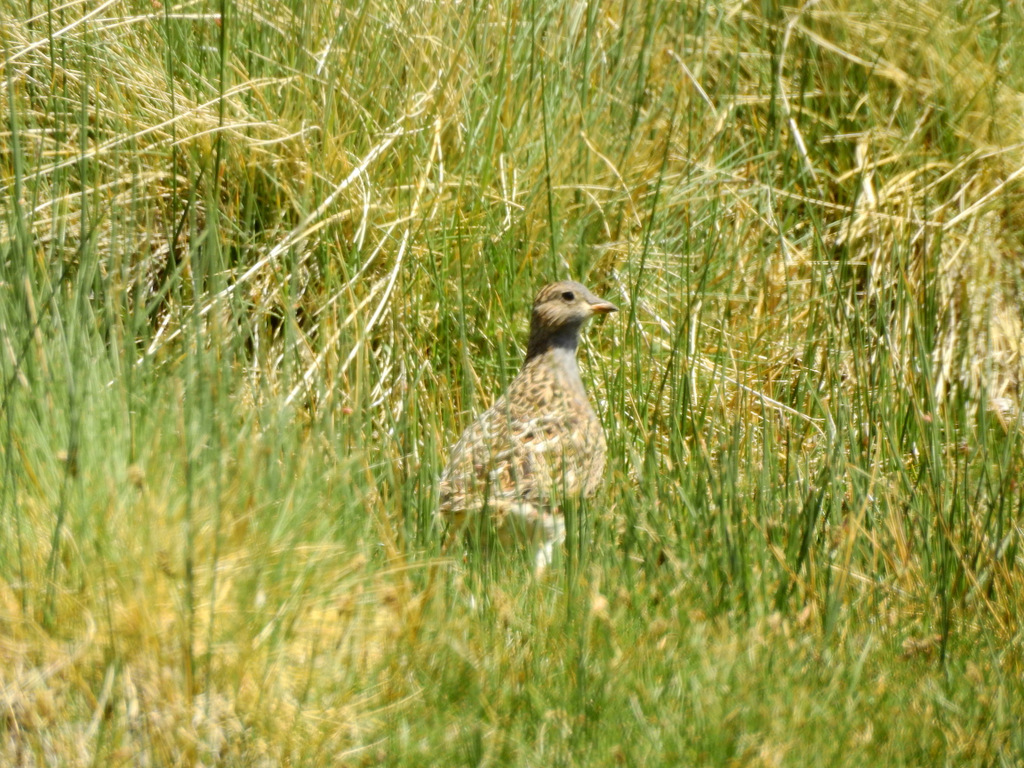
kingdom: Animalia
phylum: Chordata
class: Aves
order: Charadriiformes
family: Thinocoridae
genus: Thinocorus
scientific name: Thinocorus orbignyianus
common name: Grey-breasted seedsnipe
